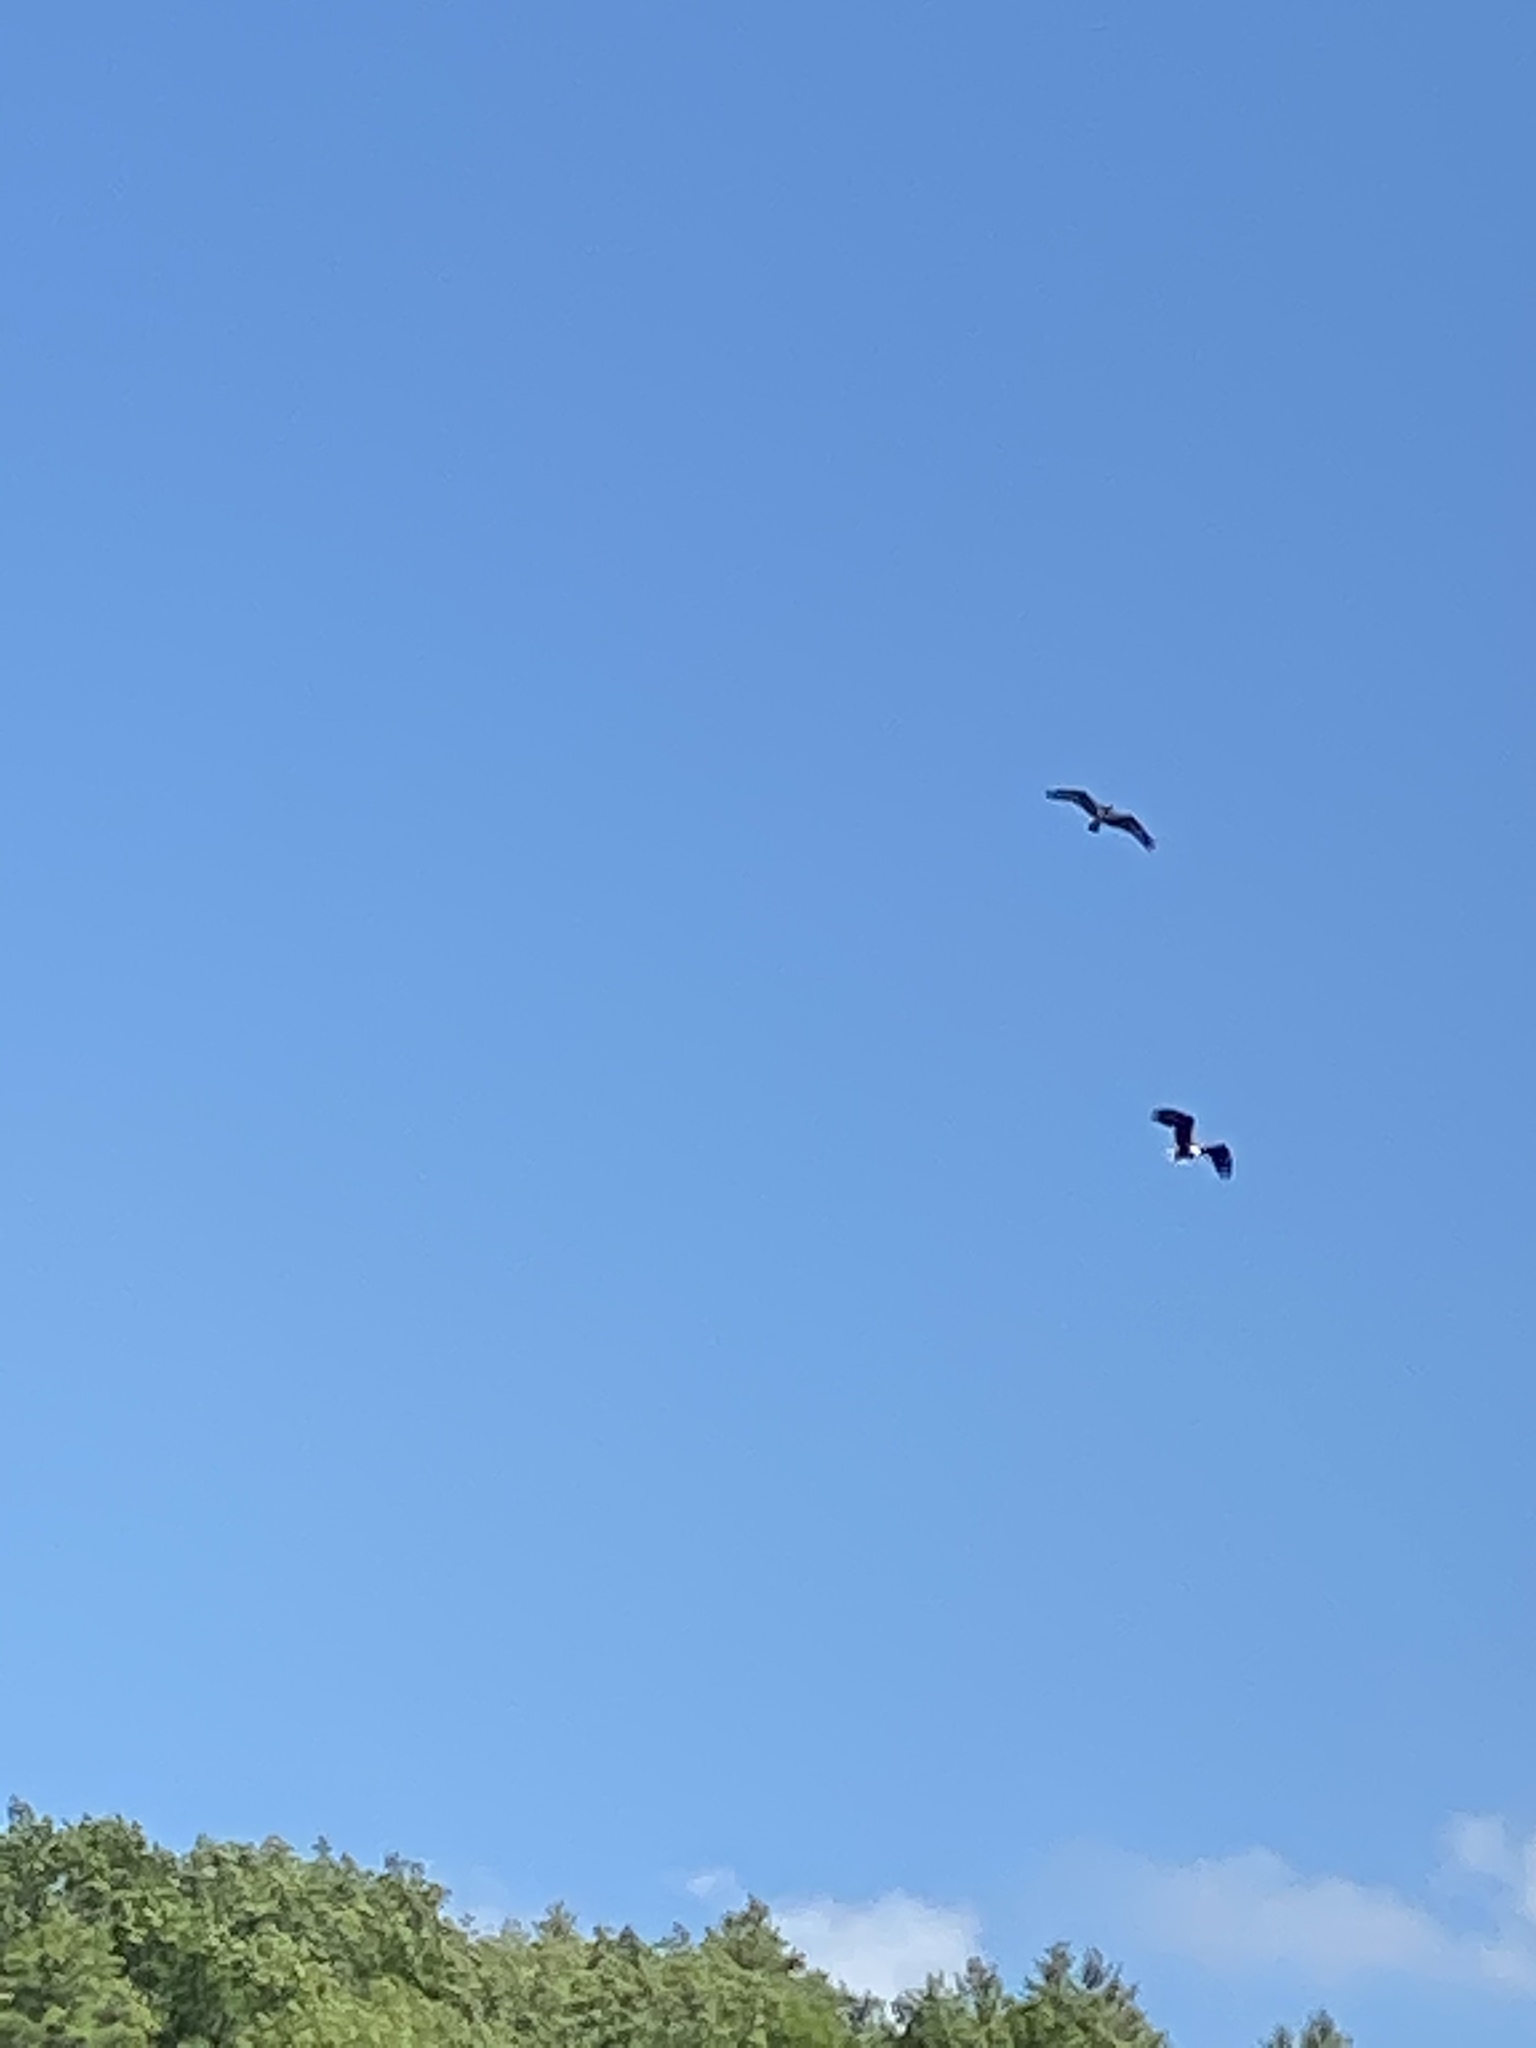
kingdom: Animalia
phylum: Chordata
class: Aves
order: Accipitriformes
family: Pandionidae
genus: Pandion
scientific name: Pandion haliaetus
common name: Osprey
